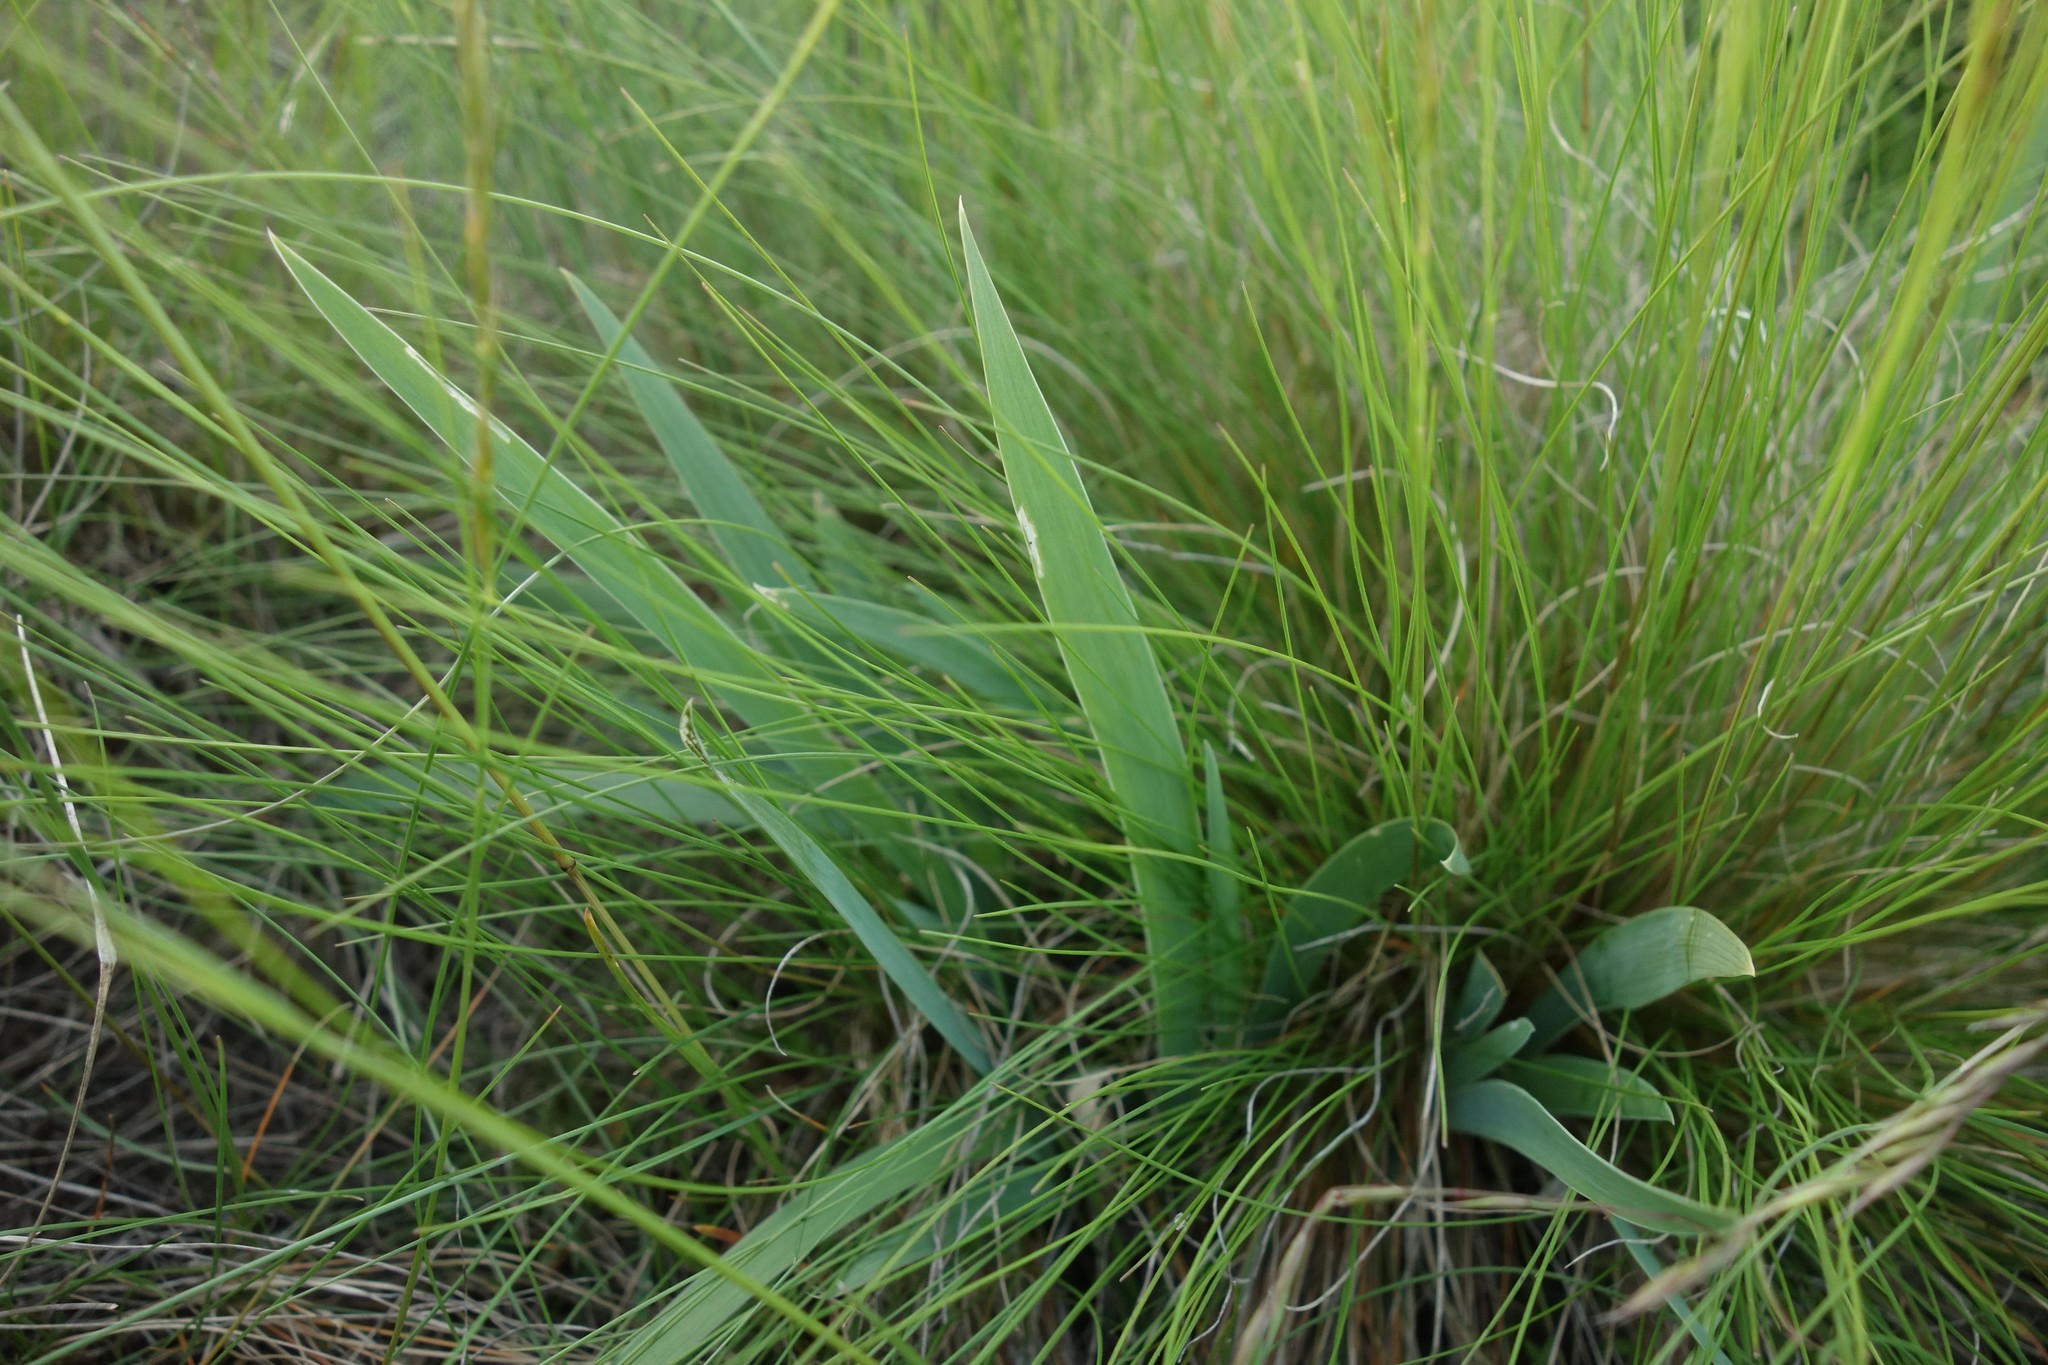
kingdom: Plantae
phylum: Tracheophyta
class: Liliopsida
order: Asparagales
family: Iridaceae
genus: Iris
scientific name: Iris pumila
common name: Dwarf iris
